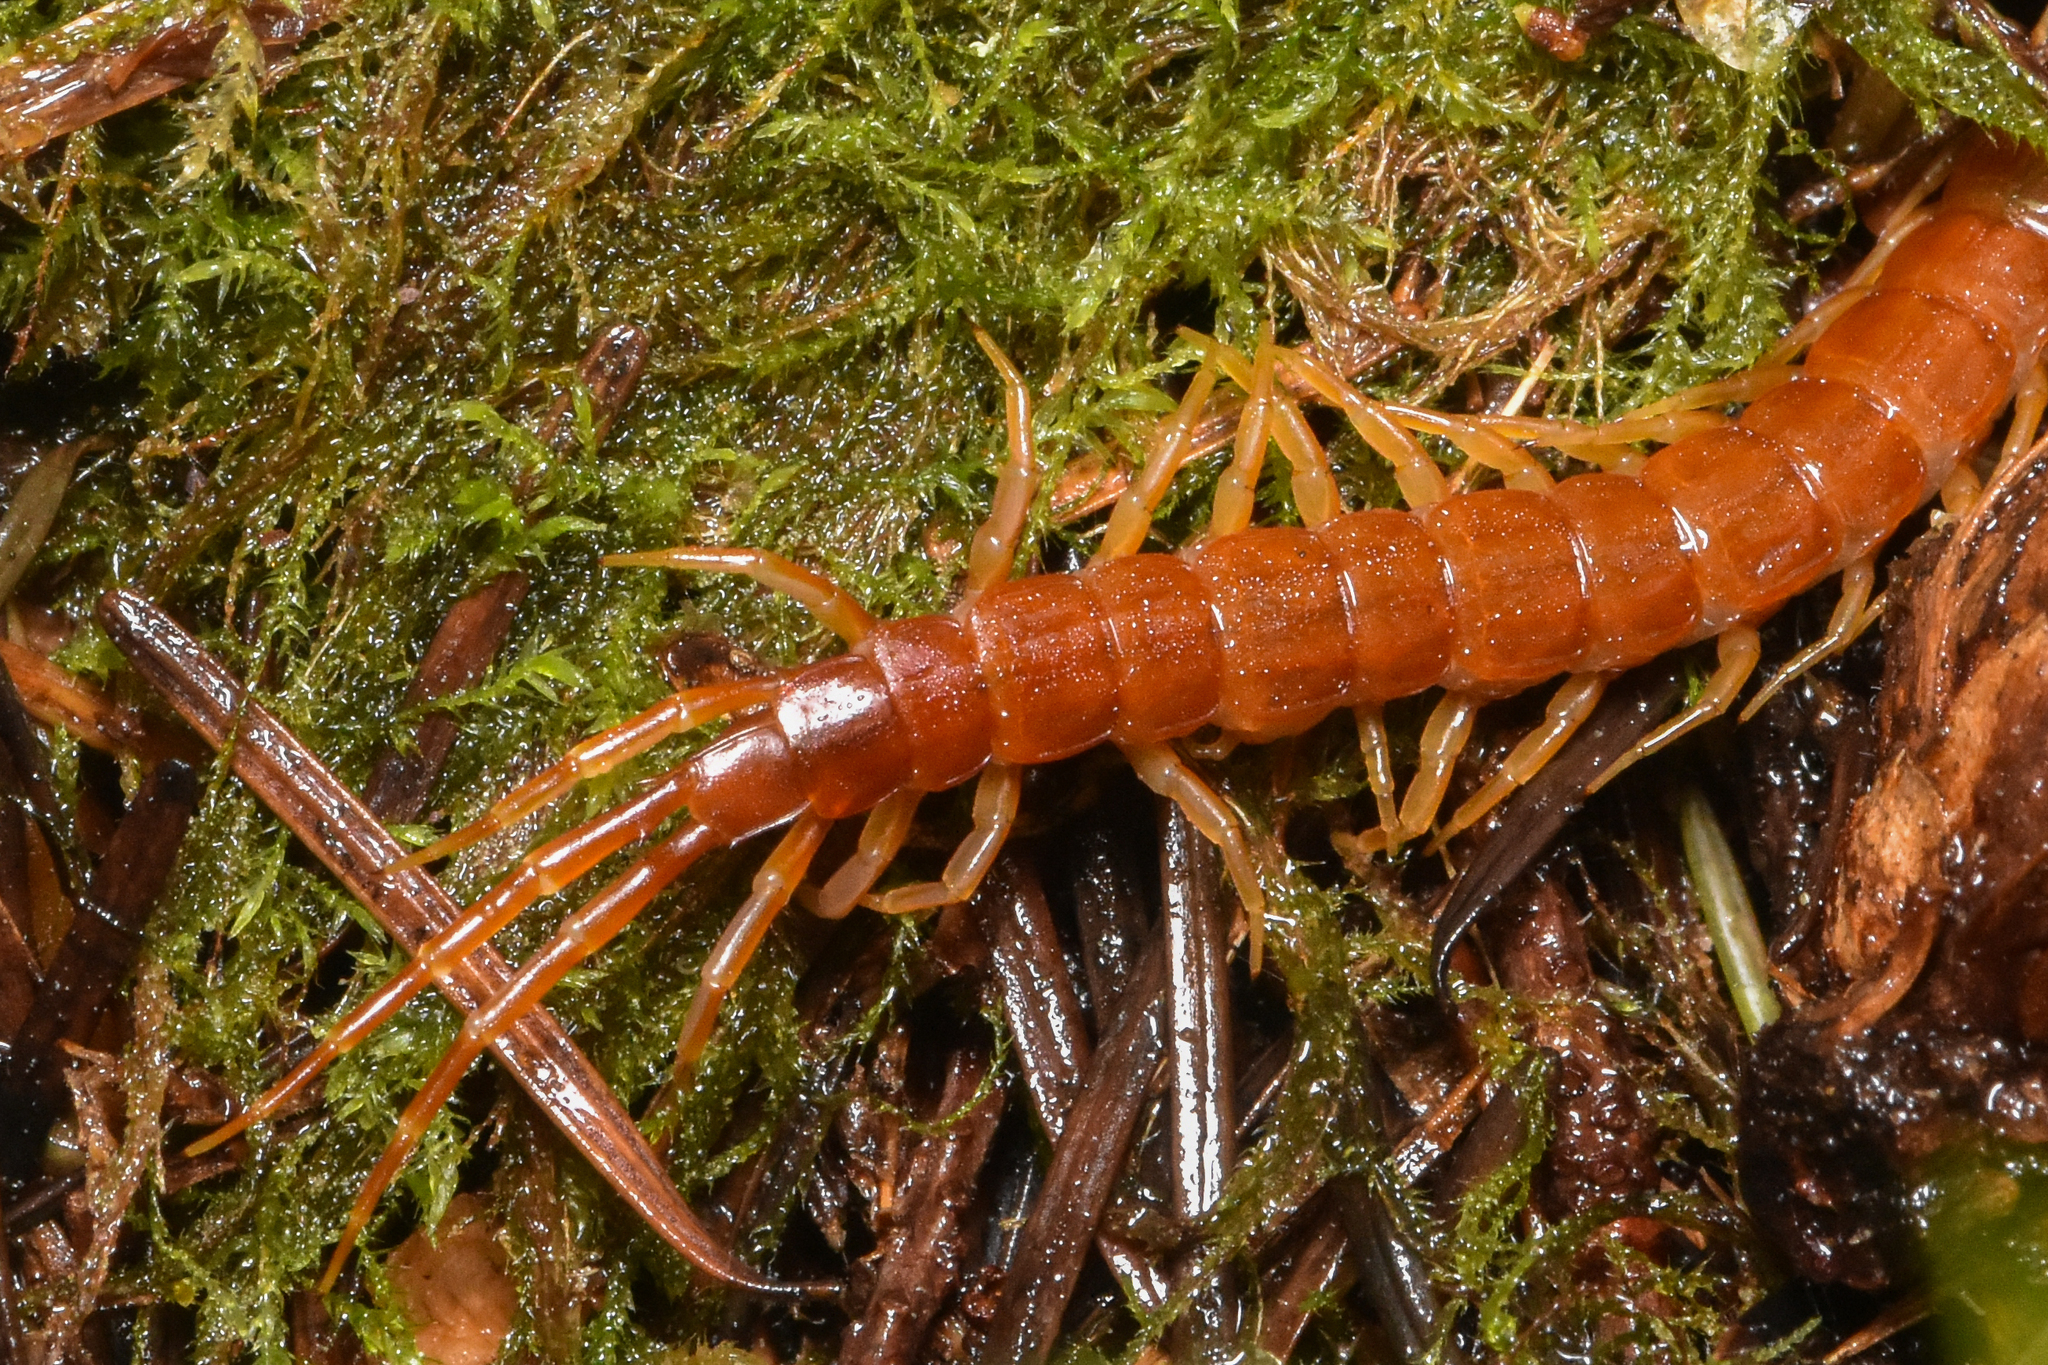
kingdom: Animalia
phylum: Arthropoda
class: Chilopoda
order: Scolopendromorpha
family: Scolopocryptopidae
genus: Scolopocryptops
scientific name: Scolopocryptops spinicaudus
